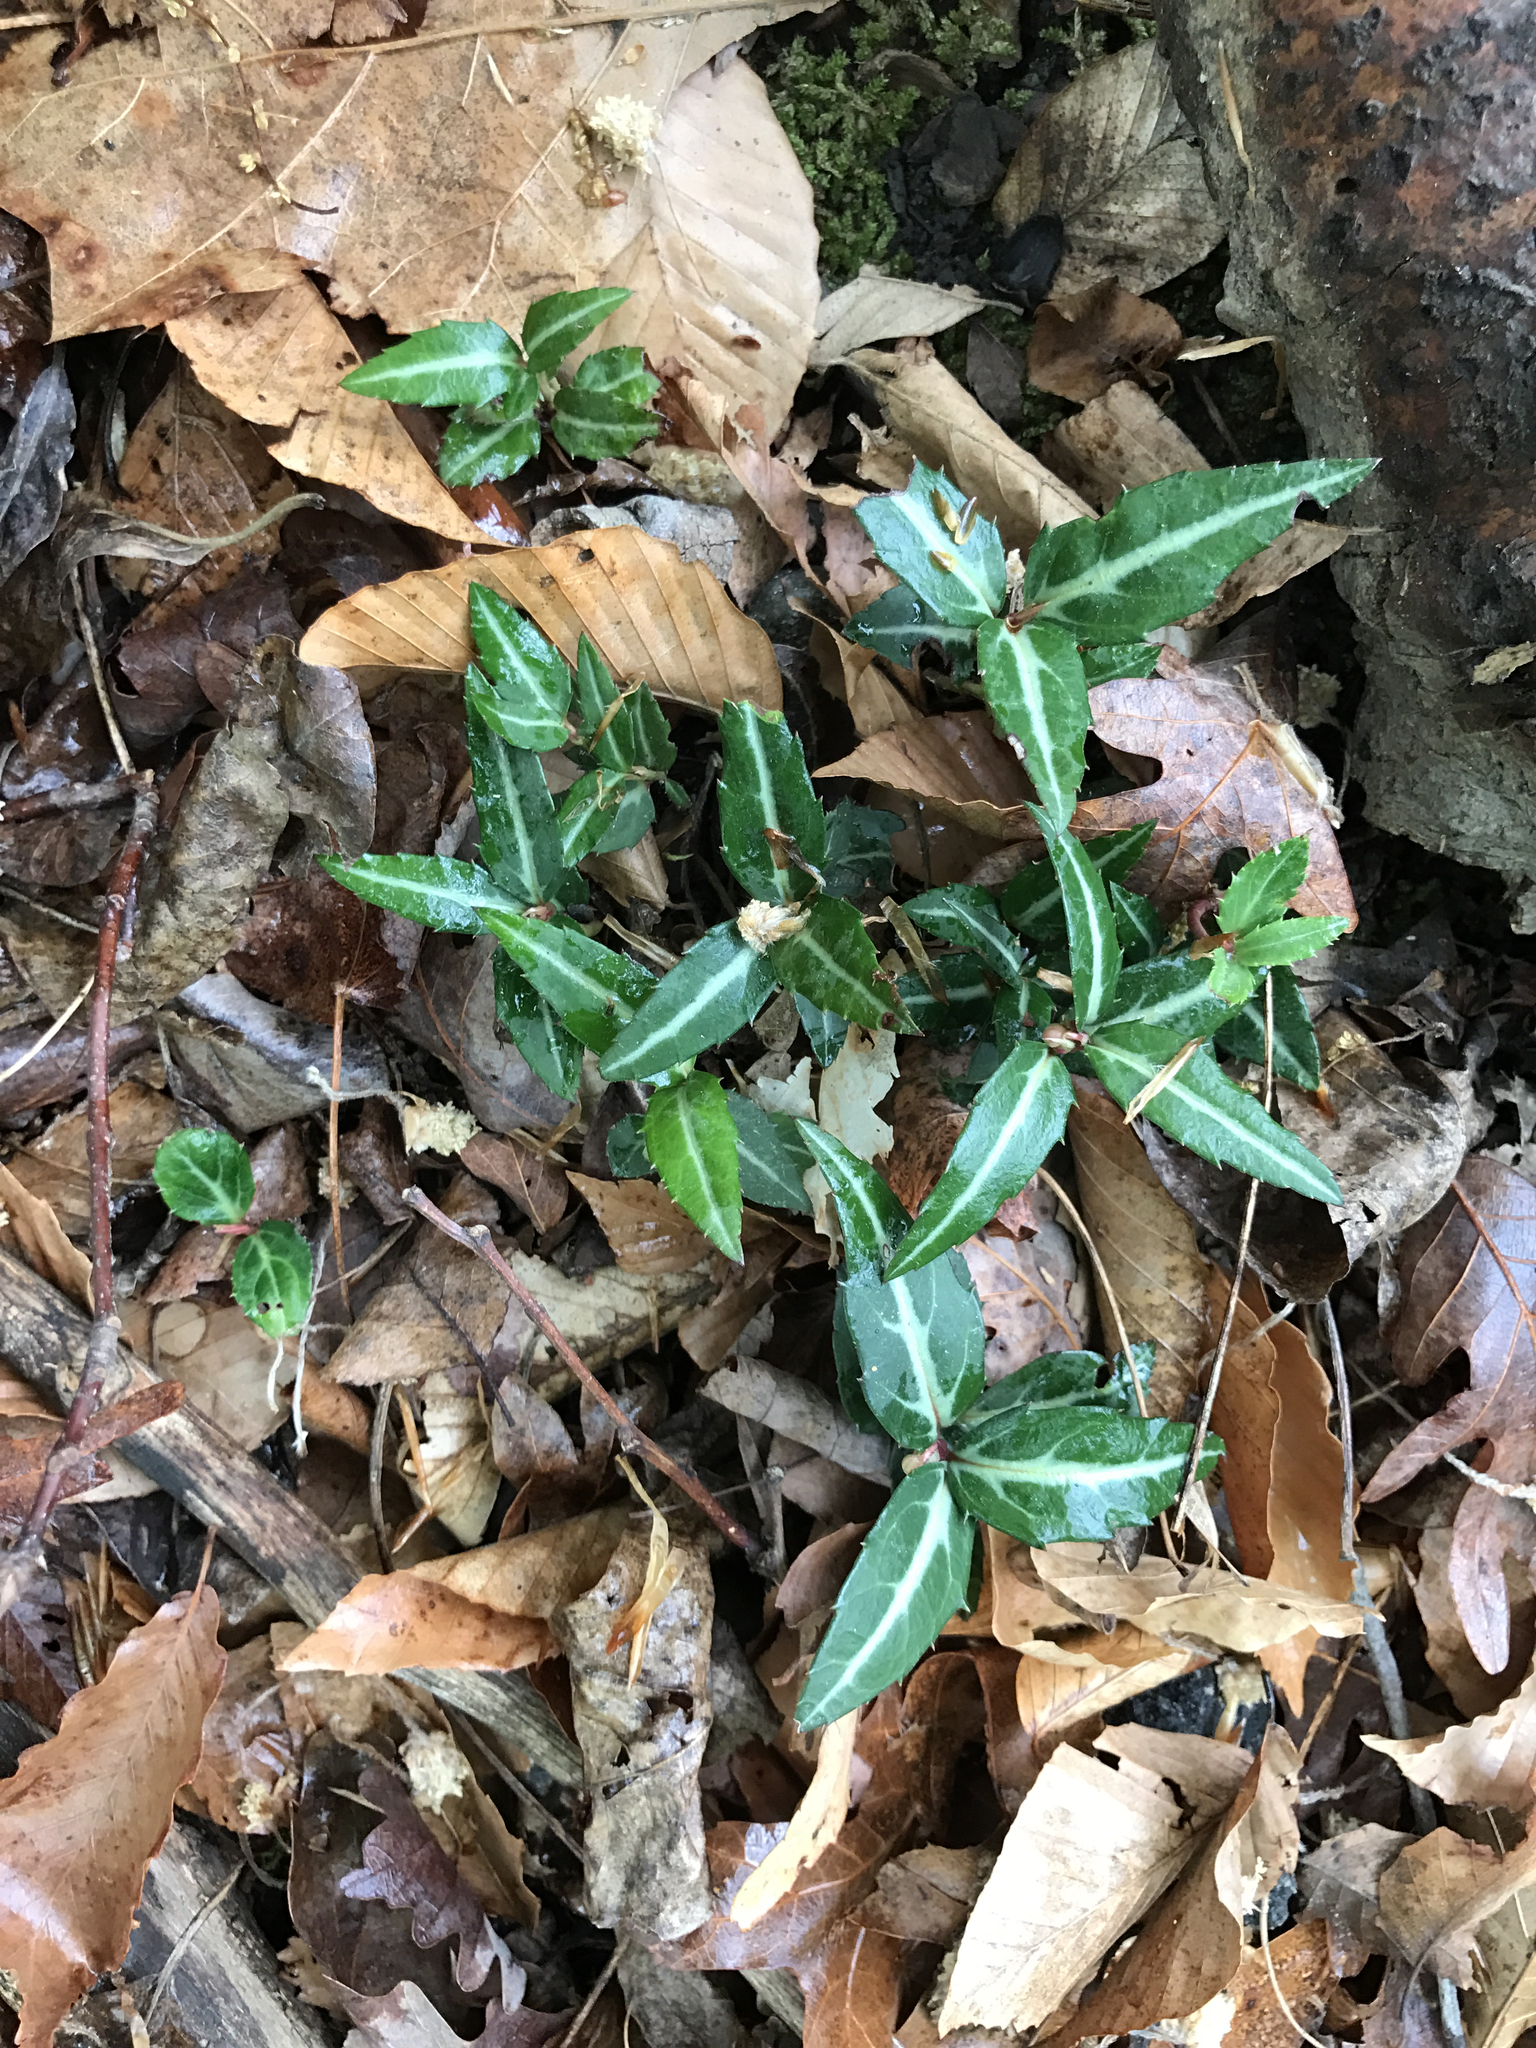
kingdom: Plantae
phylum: Tracheophyta
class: Magnoliopsida
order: Ericales
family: Ericaceae
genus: Chimaphila
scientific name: Chimaphila maculata
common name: Spotted pipsissewa
